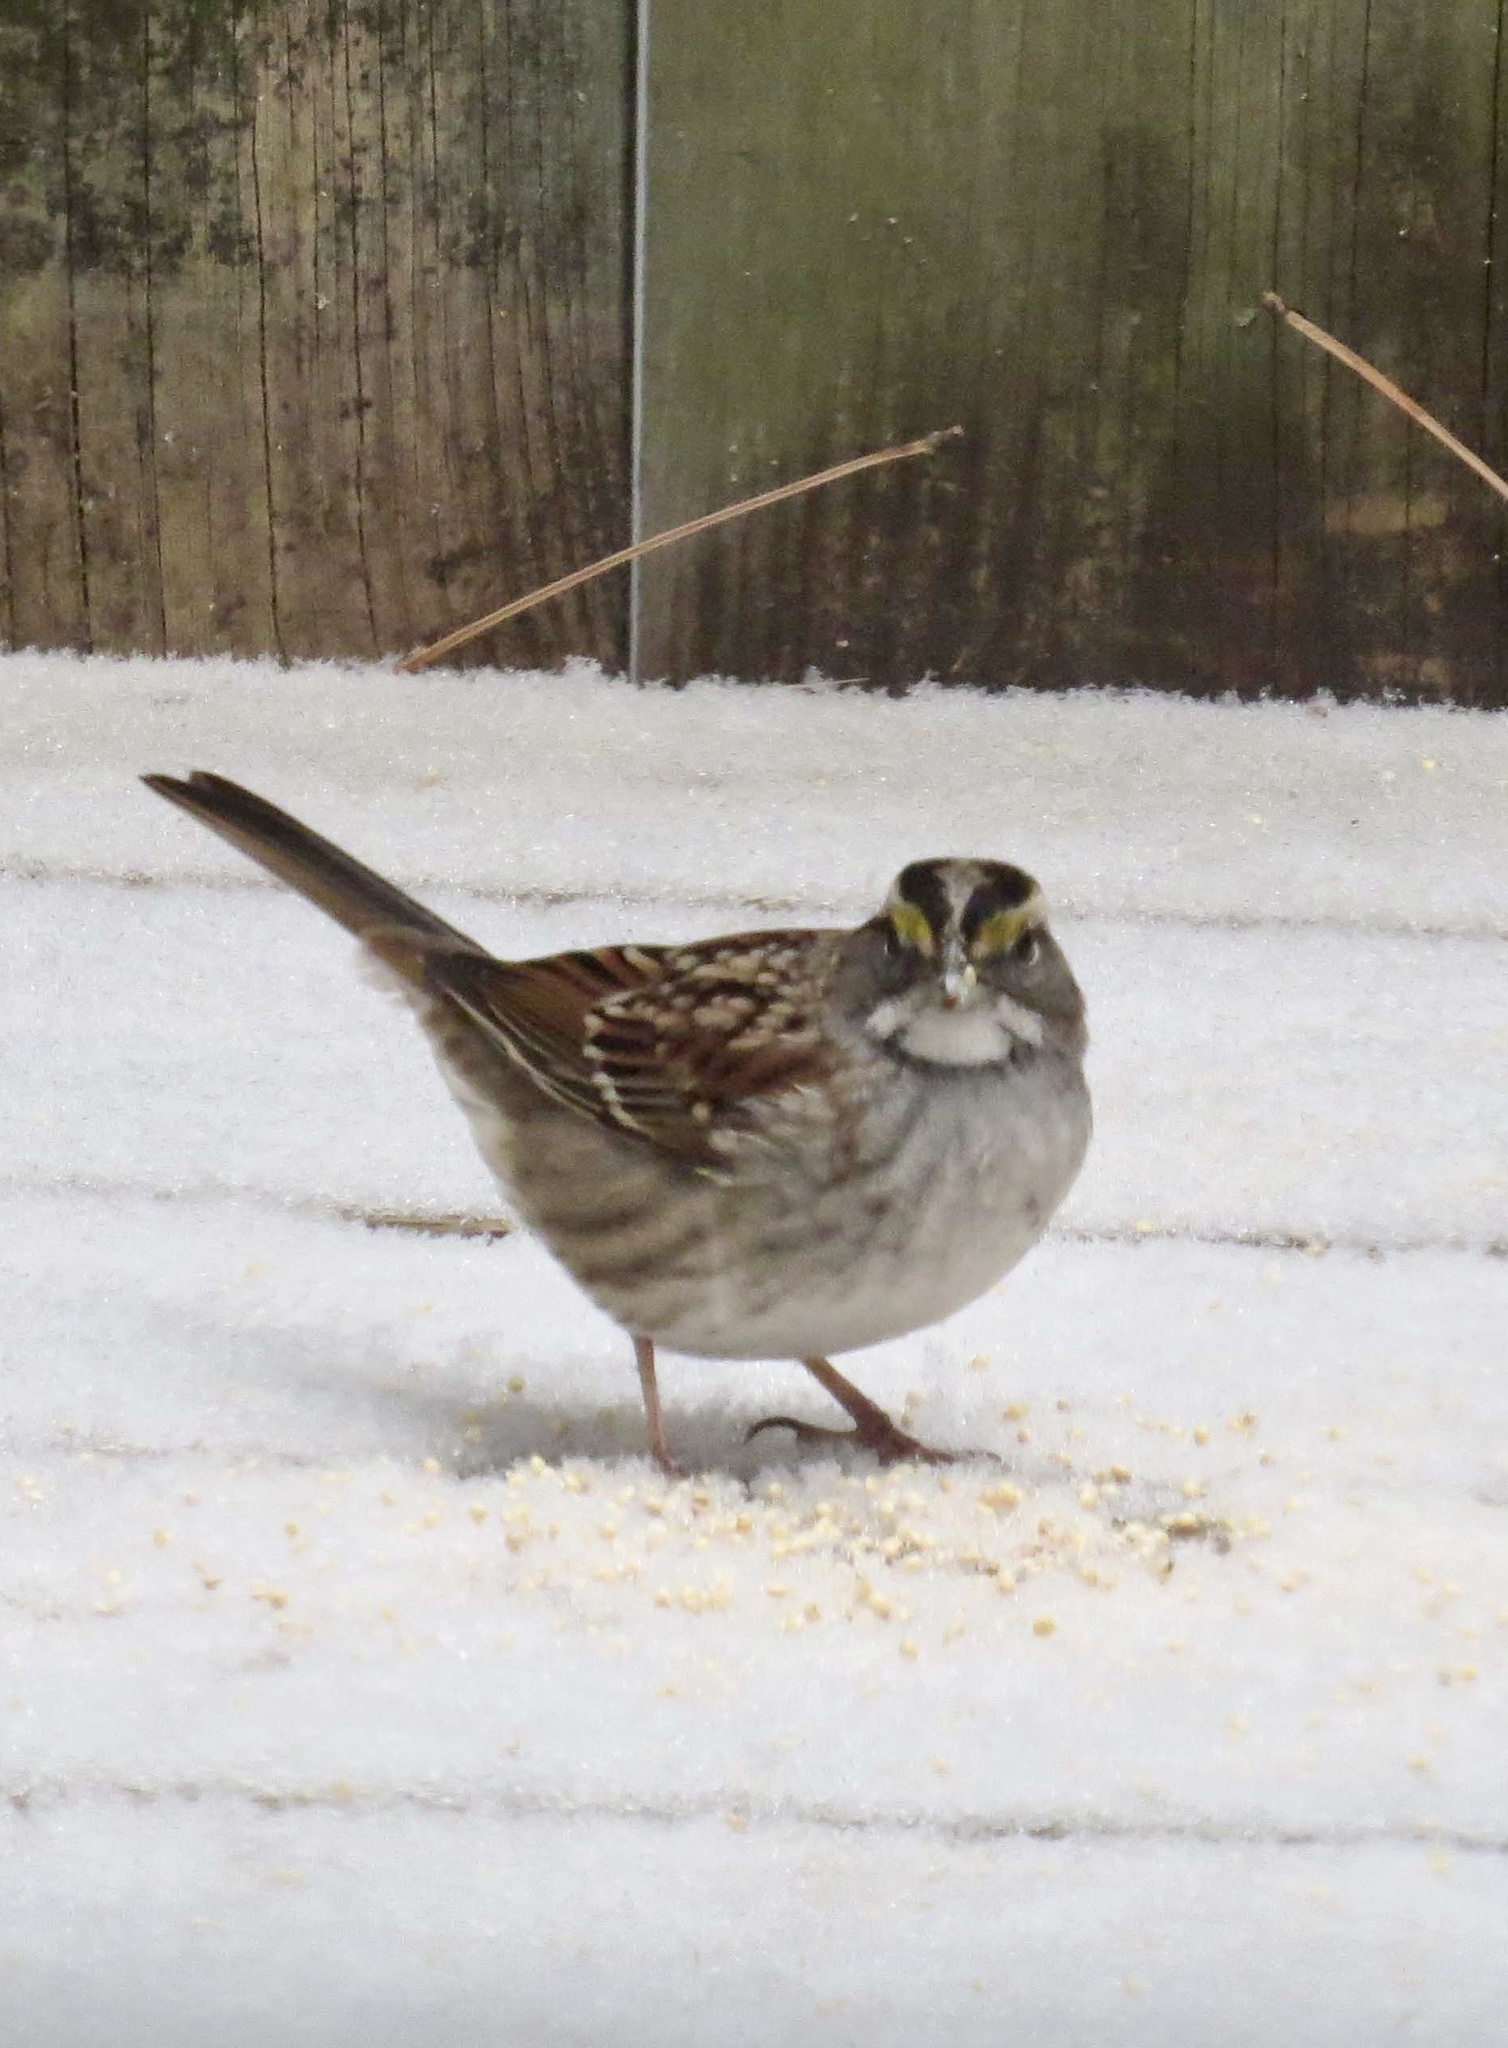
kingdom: Animalia
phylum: Chordata
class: Aves
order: Passeriformes
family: Passerellidae
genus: Zonotrichia
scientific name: Zonotrichia albicollis
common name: White-throated sparrow
